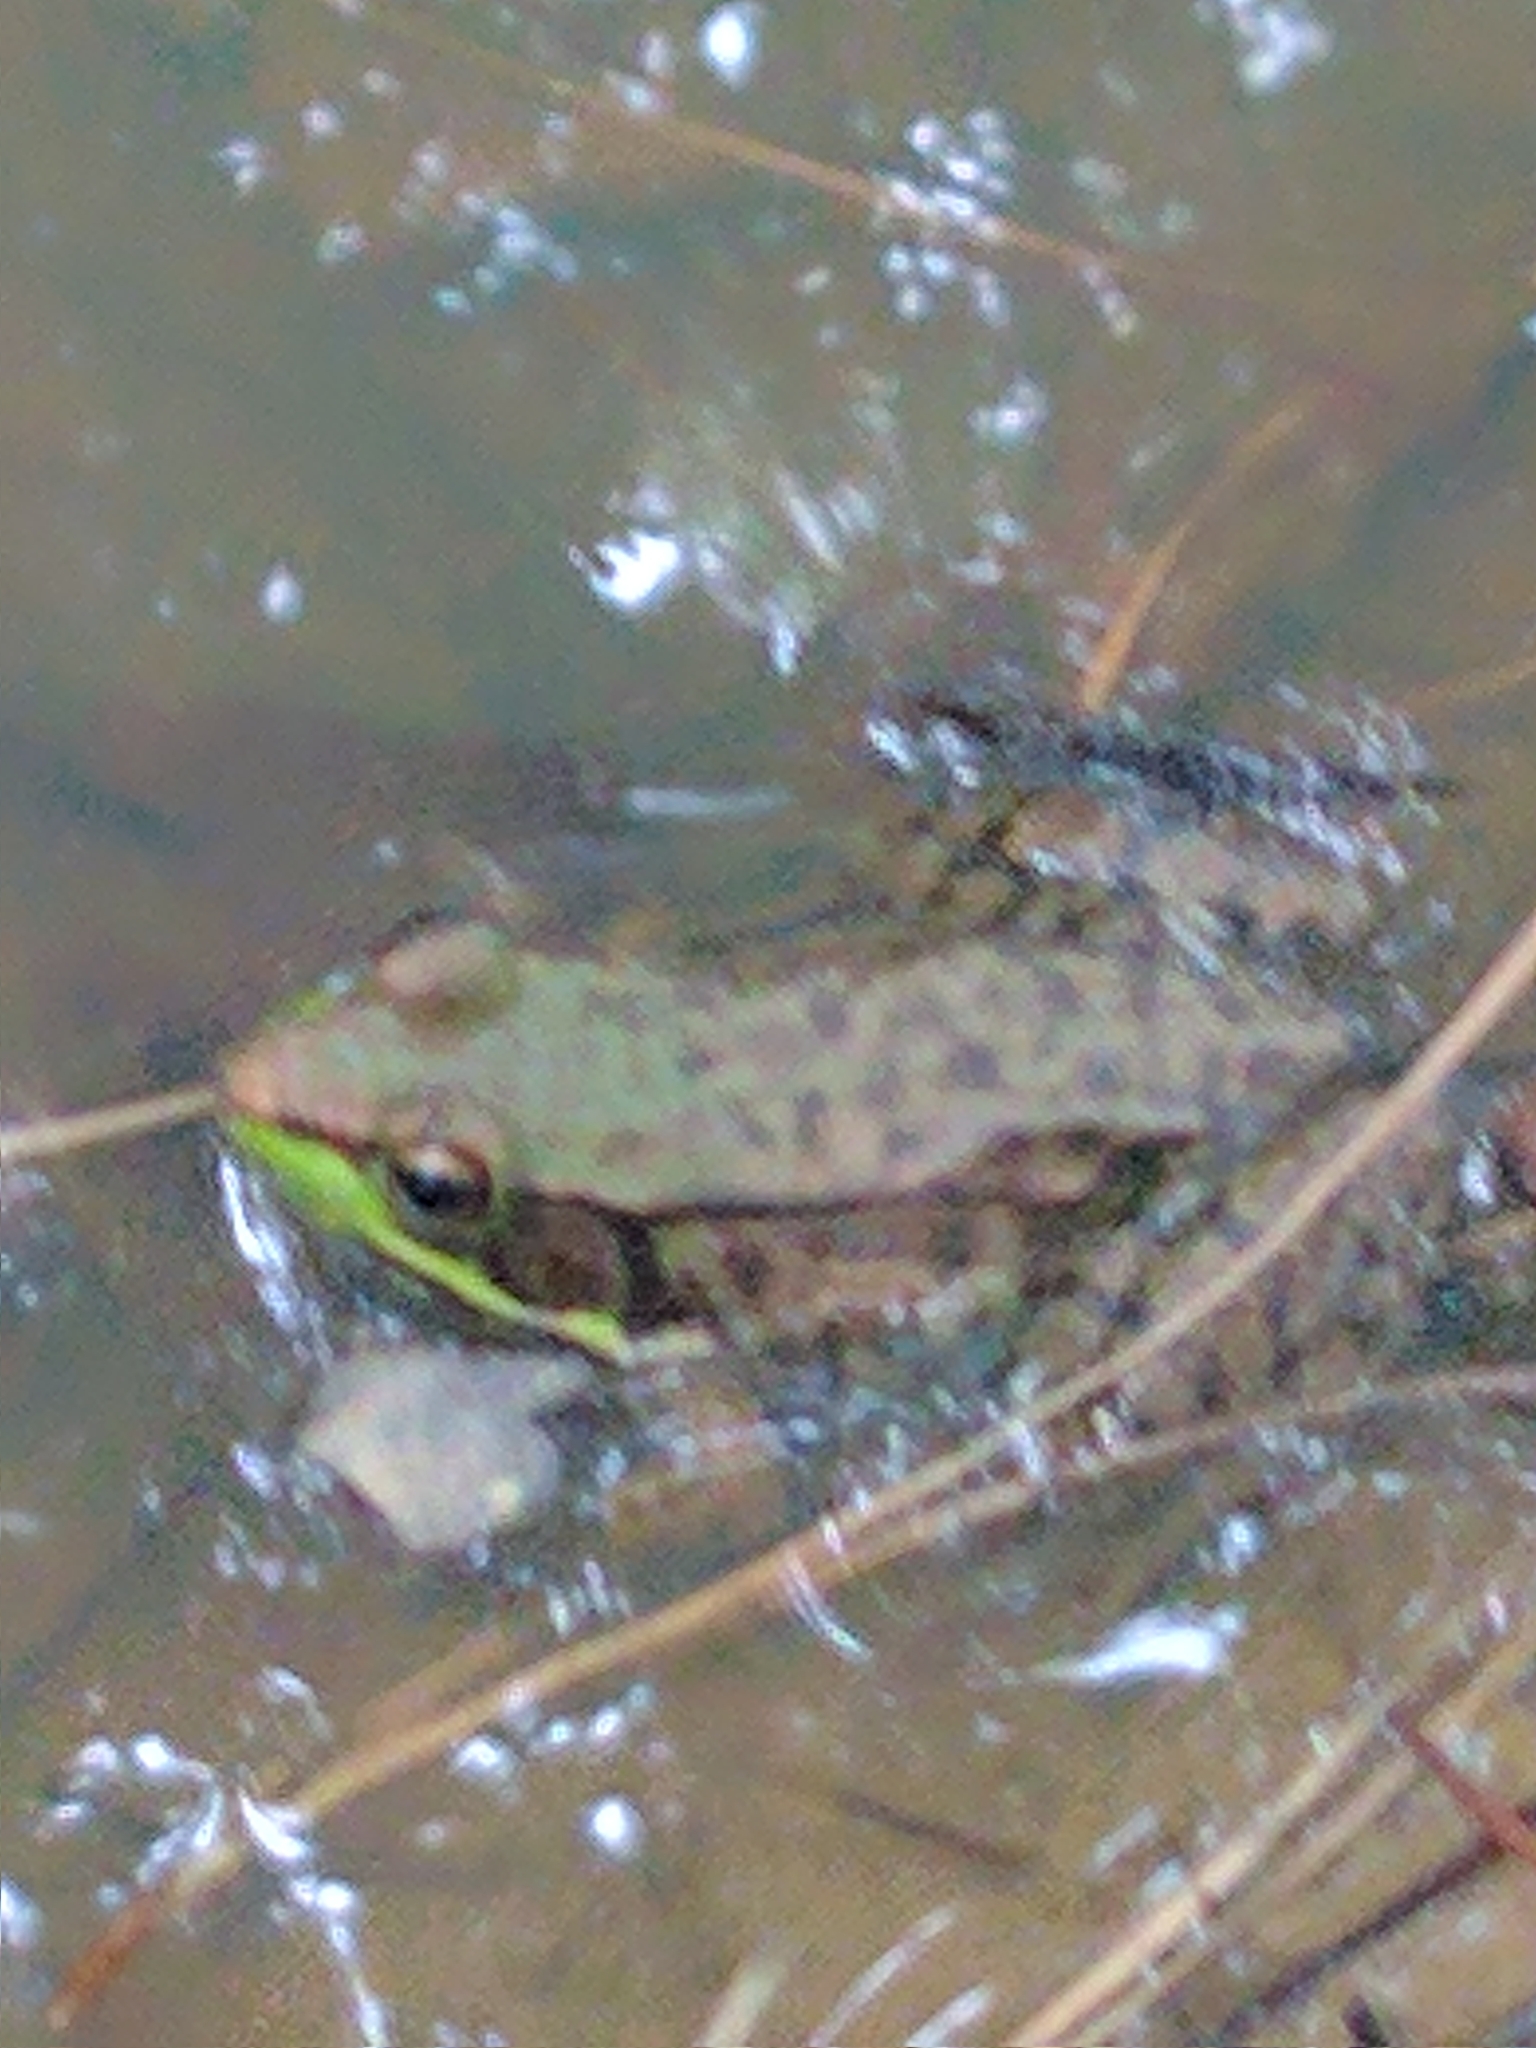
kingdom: Animalia
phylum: Chordata
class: Amphibia
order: Anura
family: Ranidae
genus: Lithobates
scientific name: Lithobates clamitans
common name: Green frog
